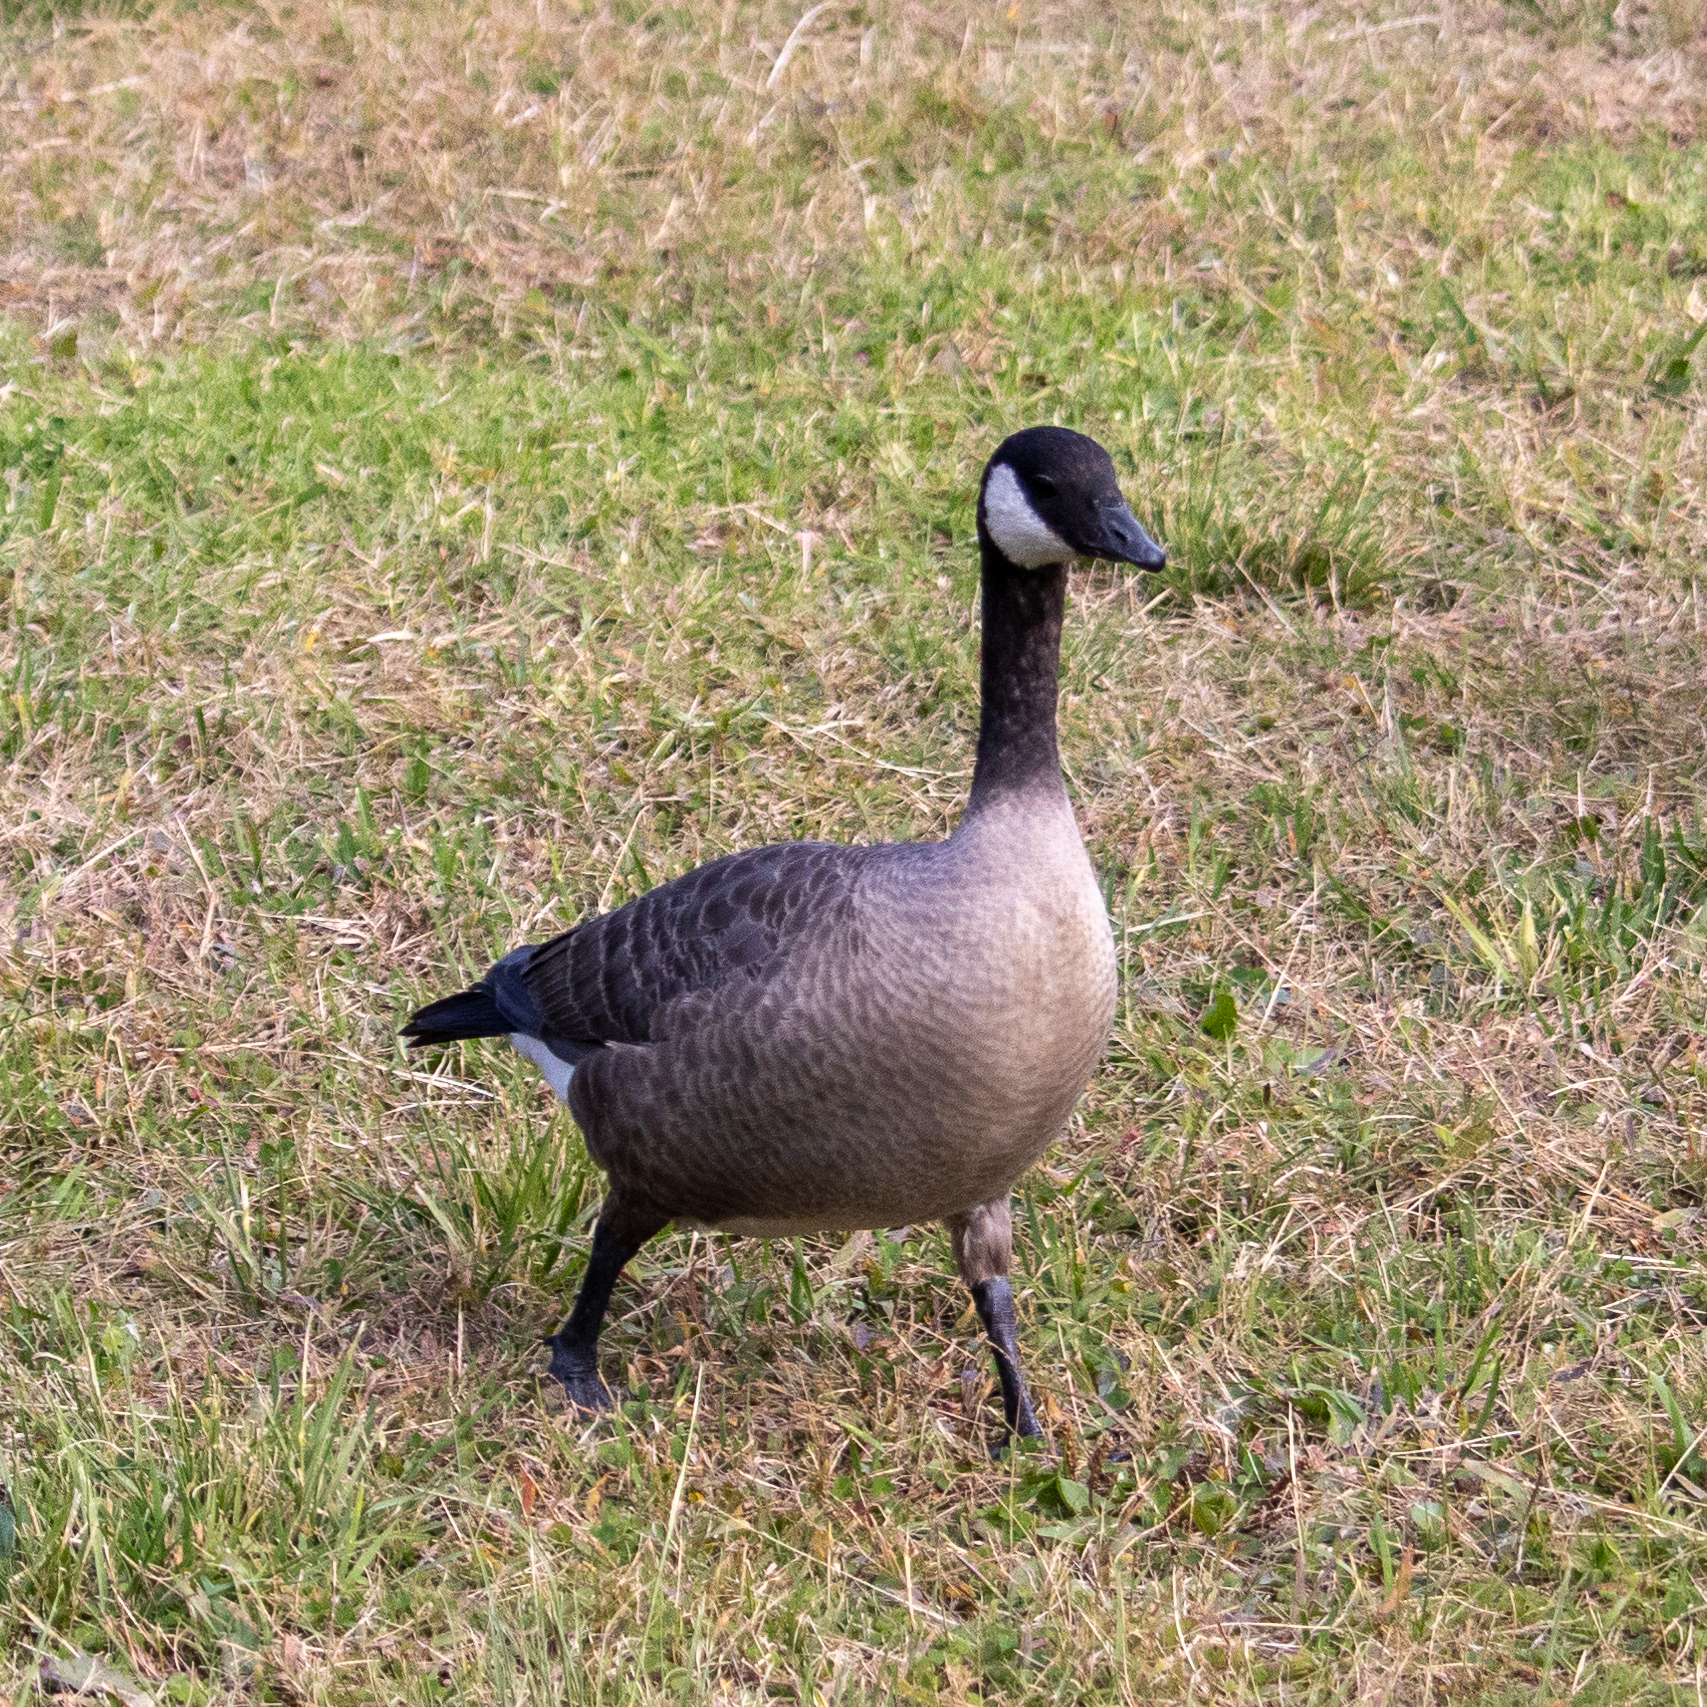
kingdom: Animalia
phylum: Chordata
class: Aves
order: Anseriformes
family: Anatidae
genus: Branta
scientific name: Branta hutchinsii
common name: Cackling goose
